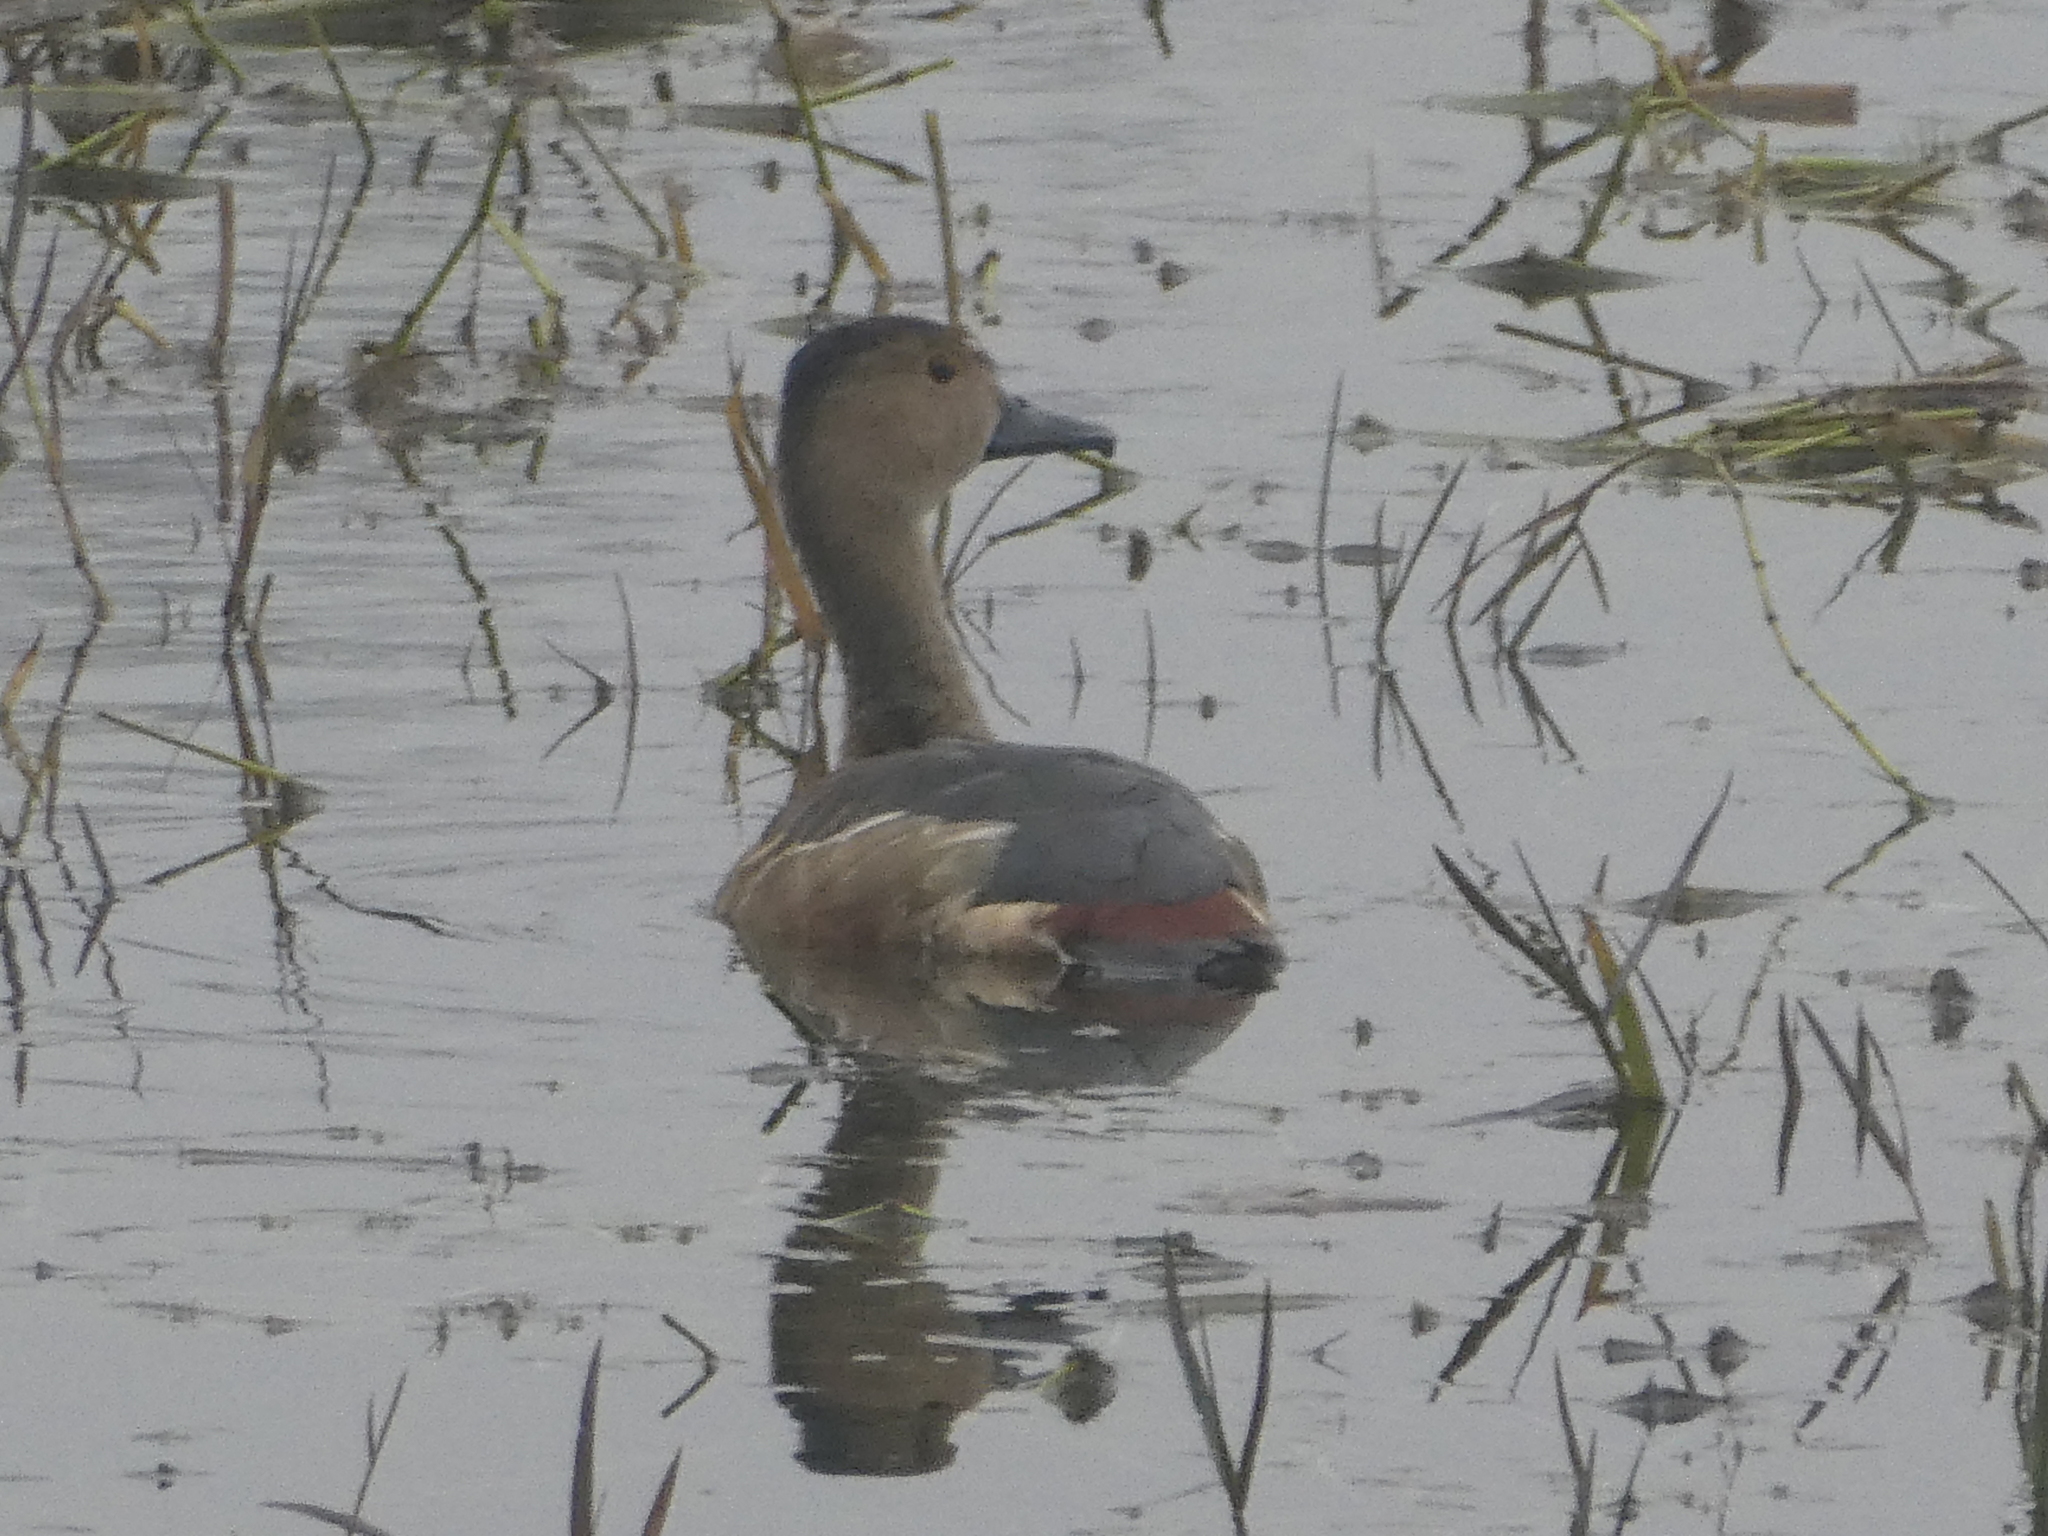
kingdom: Animalia
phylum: Chordata
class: Aves
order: Anseriformes
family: Anatidae
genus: Dendrocygna
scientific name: Dendrocygna javanica
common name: Lesser whistling-duck
